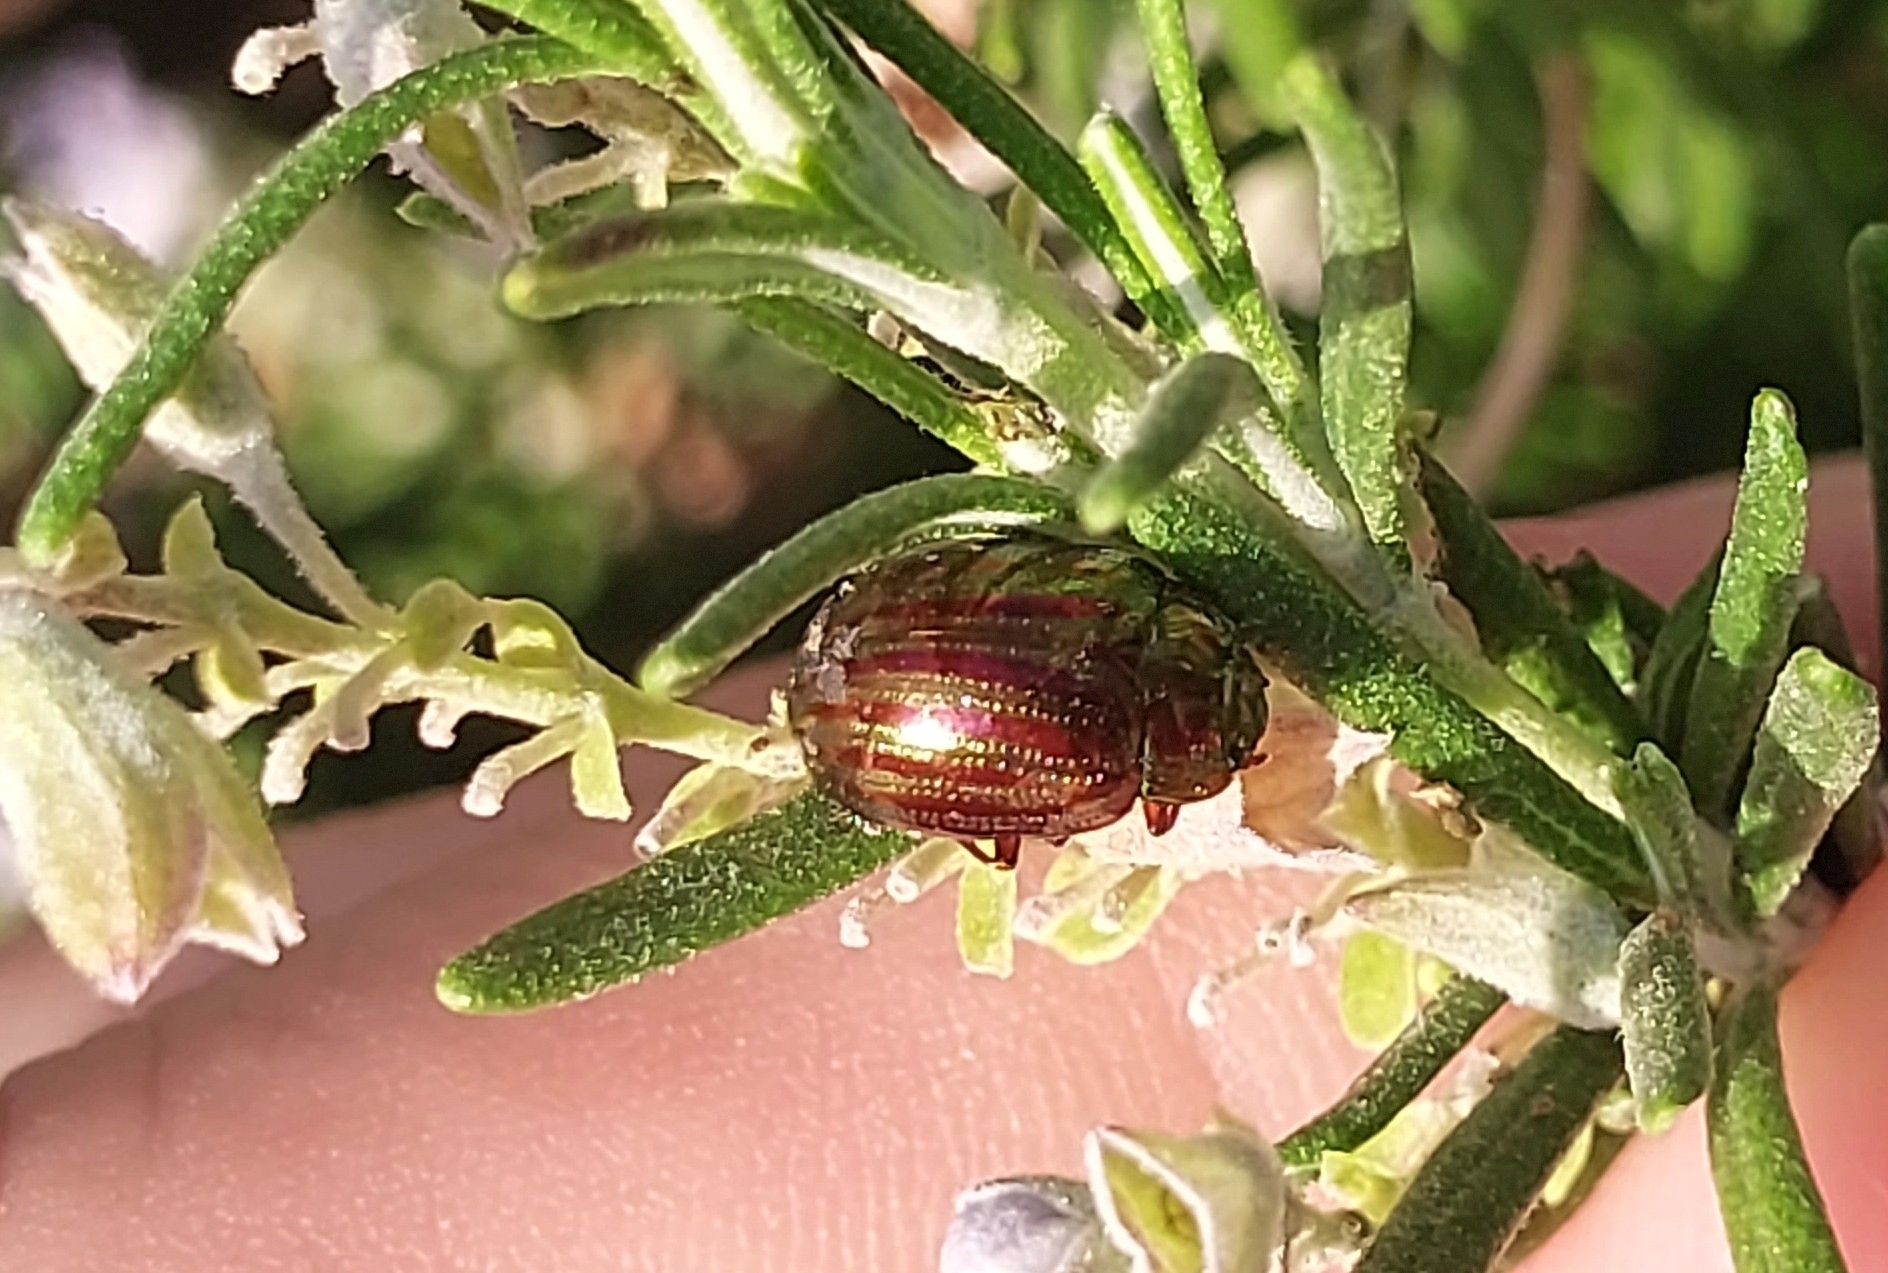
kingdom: Animalia
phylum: Arthropoda
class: Insecta
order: Coleoptera
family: Chrysomelidae
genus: Chrysolina
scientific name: Chrysolina americana
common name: Rosemary beetle
